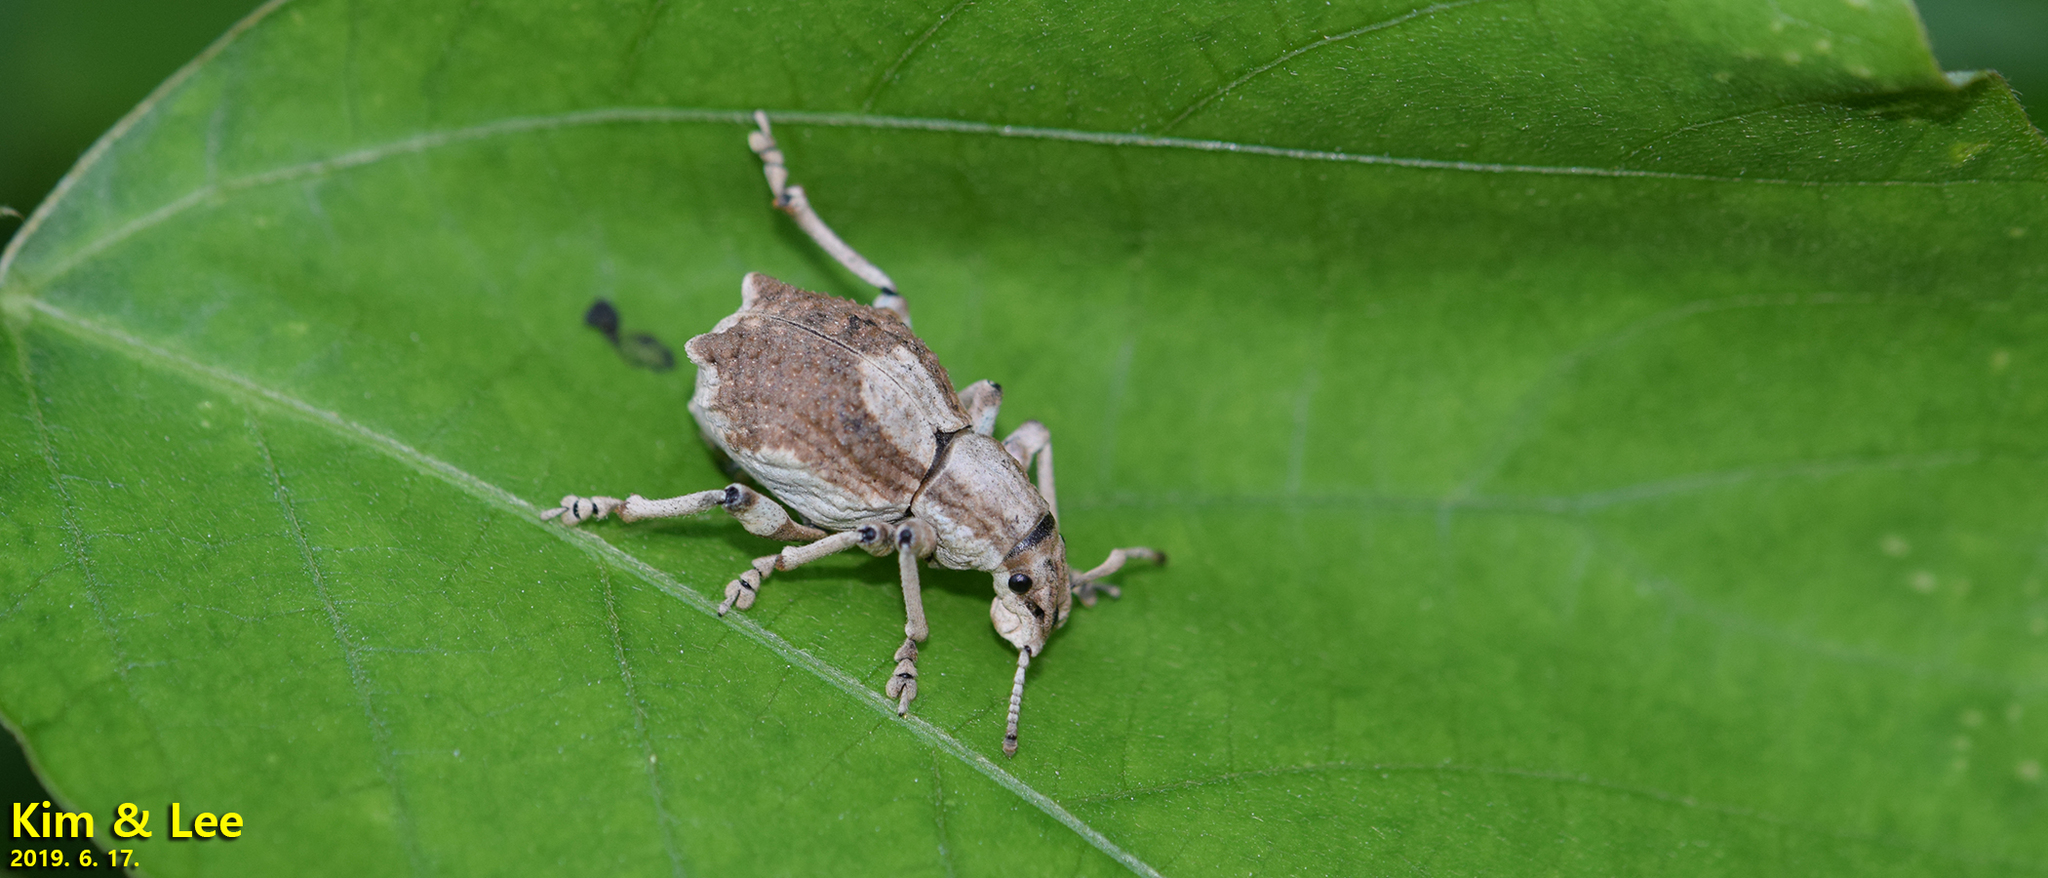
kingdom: Animalia
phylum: Arthropoda
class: Insecta
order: Coleoptera
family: Curculionidae
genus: Episomus
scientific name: Episomus turritus
